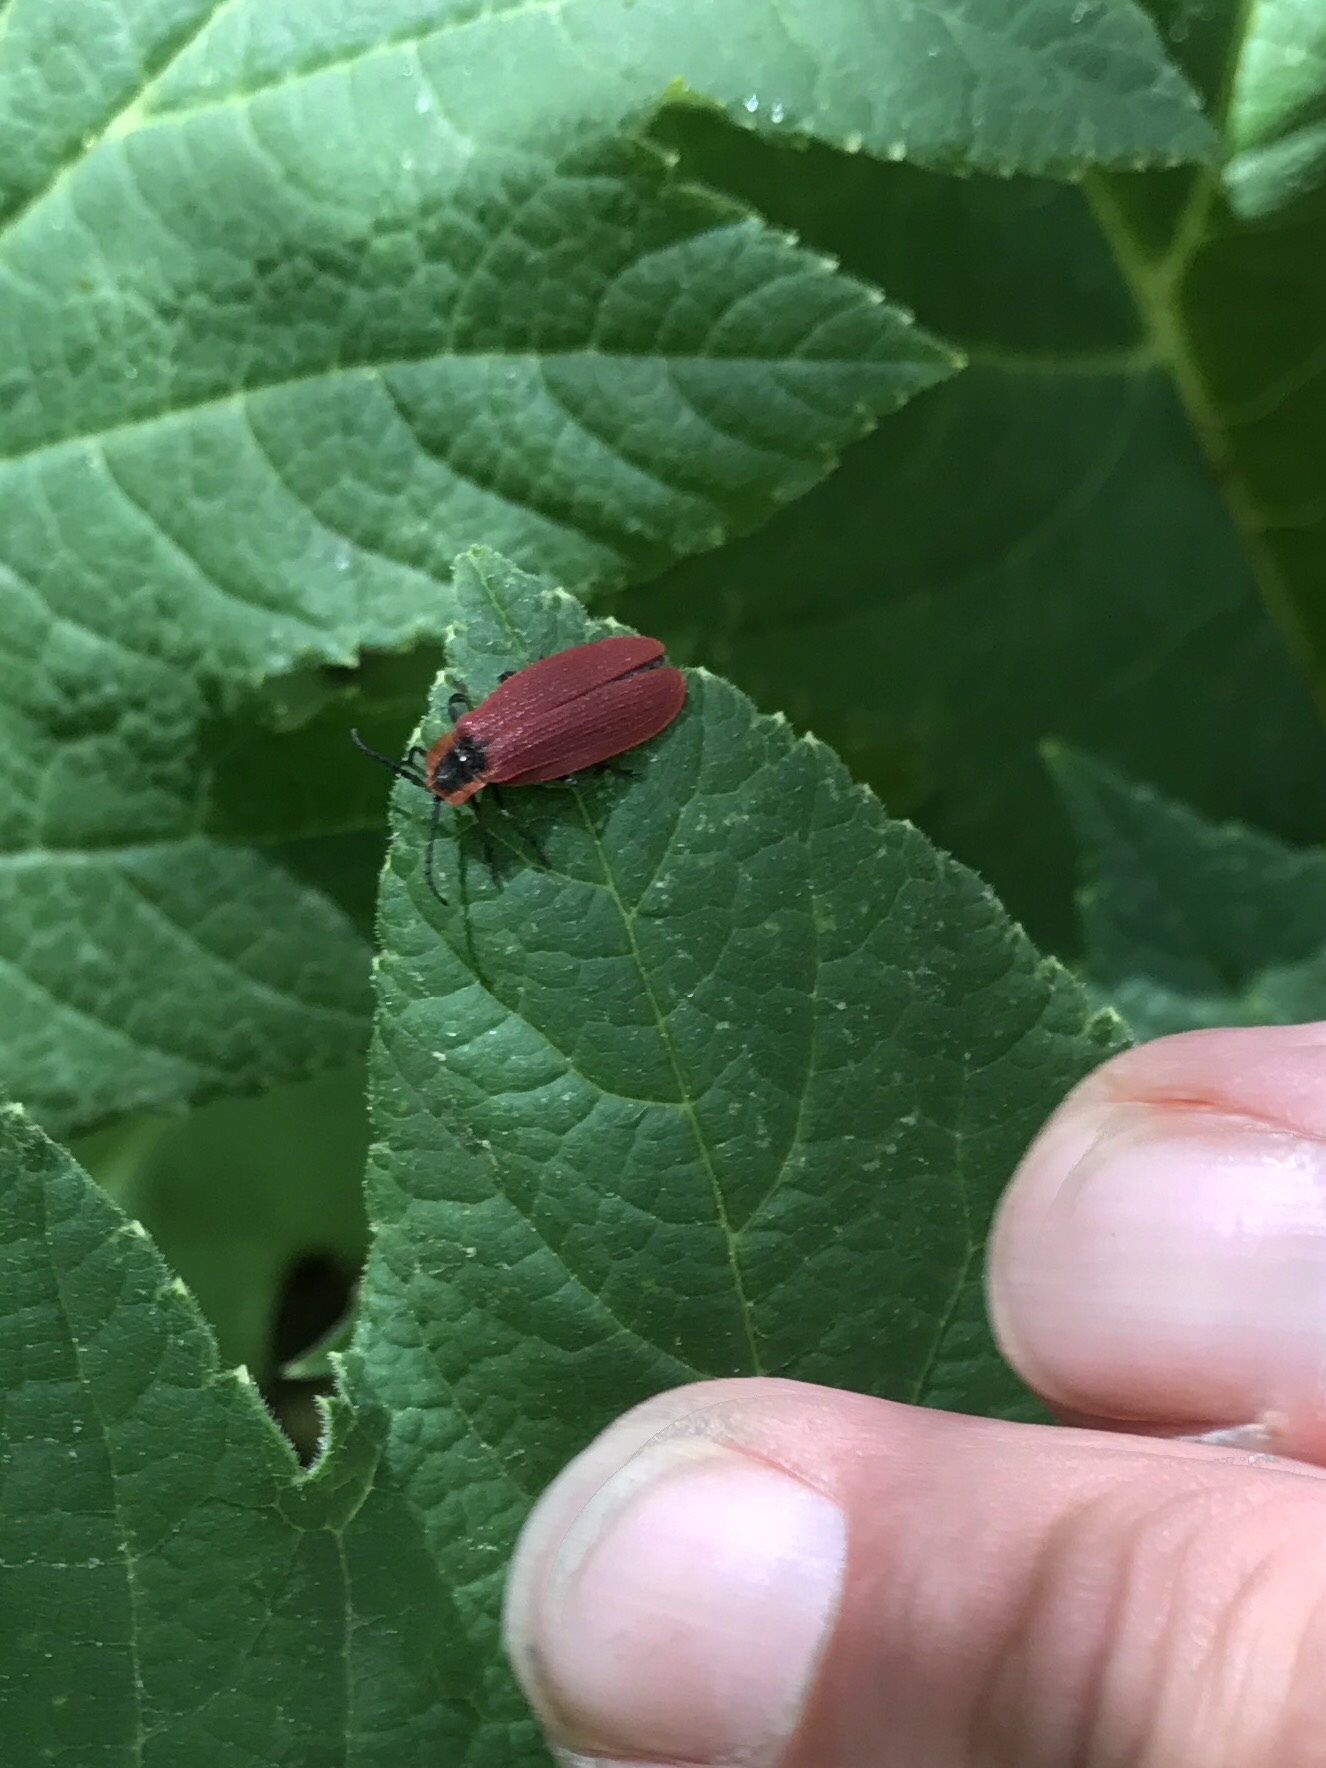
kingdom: Animalia
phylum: Arthropoda
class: Insecta
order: Coleoptera
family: Lycidae
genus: Lycus
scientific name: Lycus sanguinipennis
